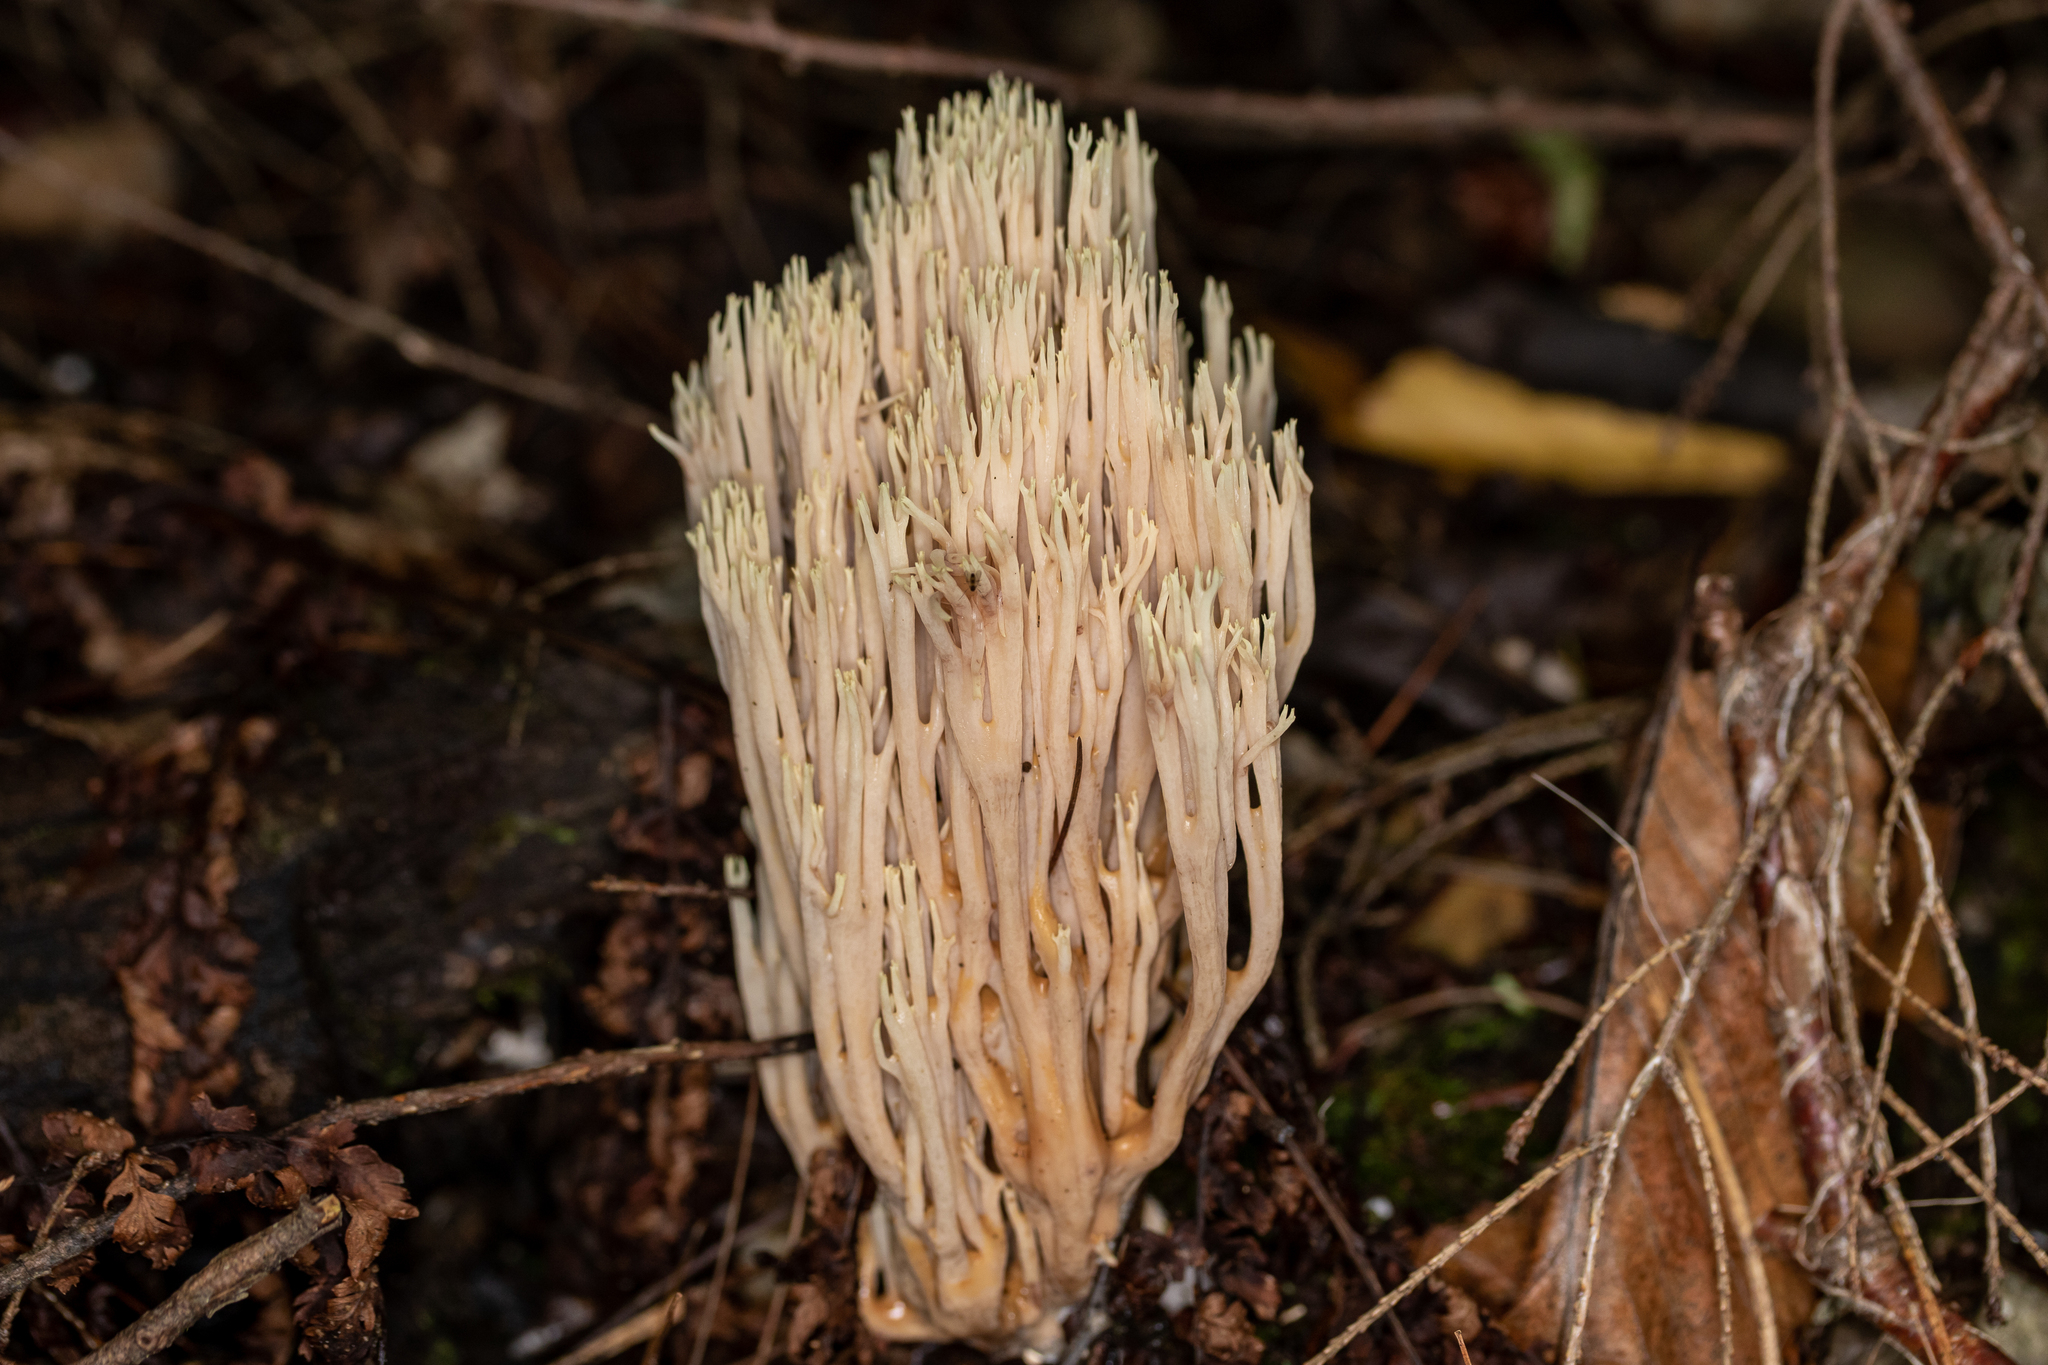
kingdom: Fungi
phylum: Basidiomycota
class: Agaricomycetes
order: Gomphales
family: Gomphaceae
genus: Ramaria
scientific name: Ramaria stricta
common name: Upright coral
